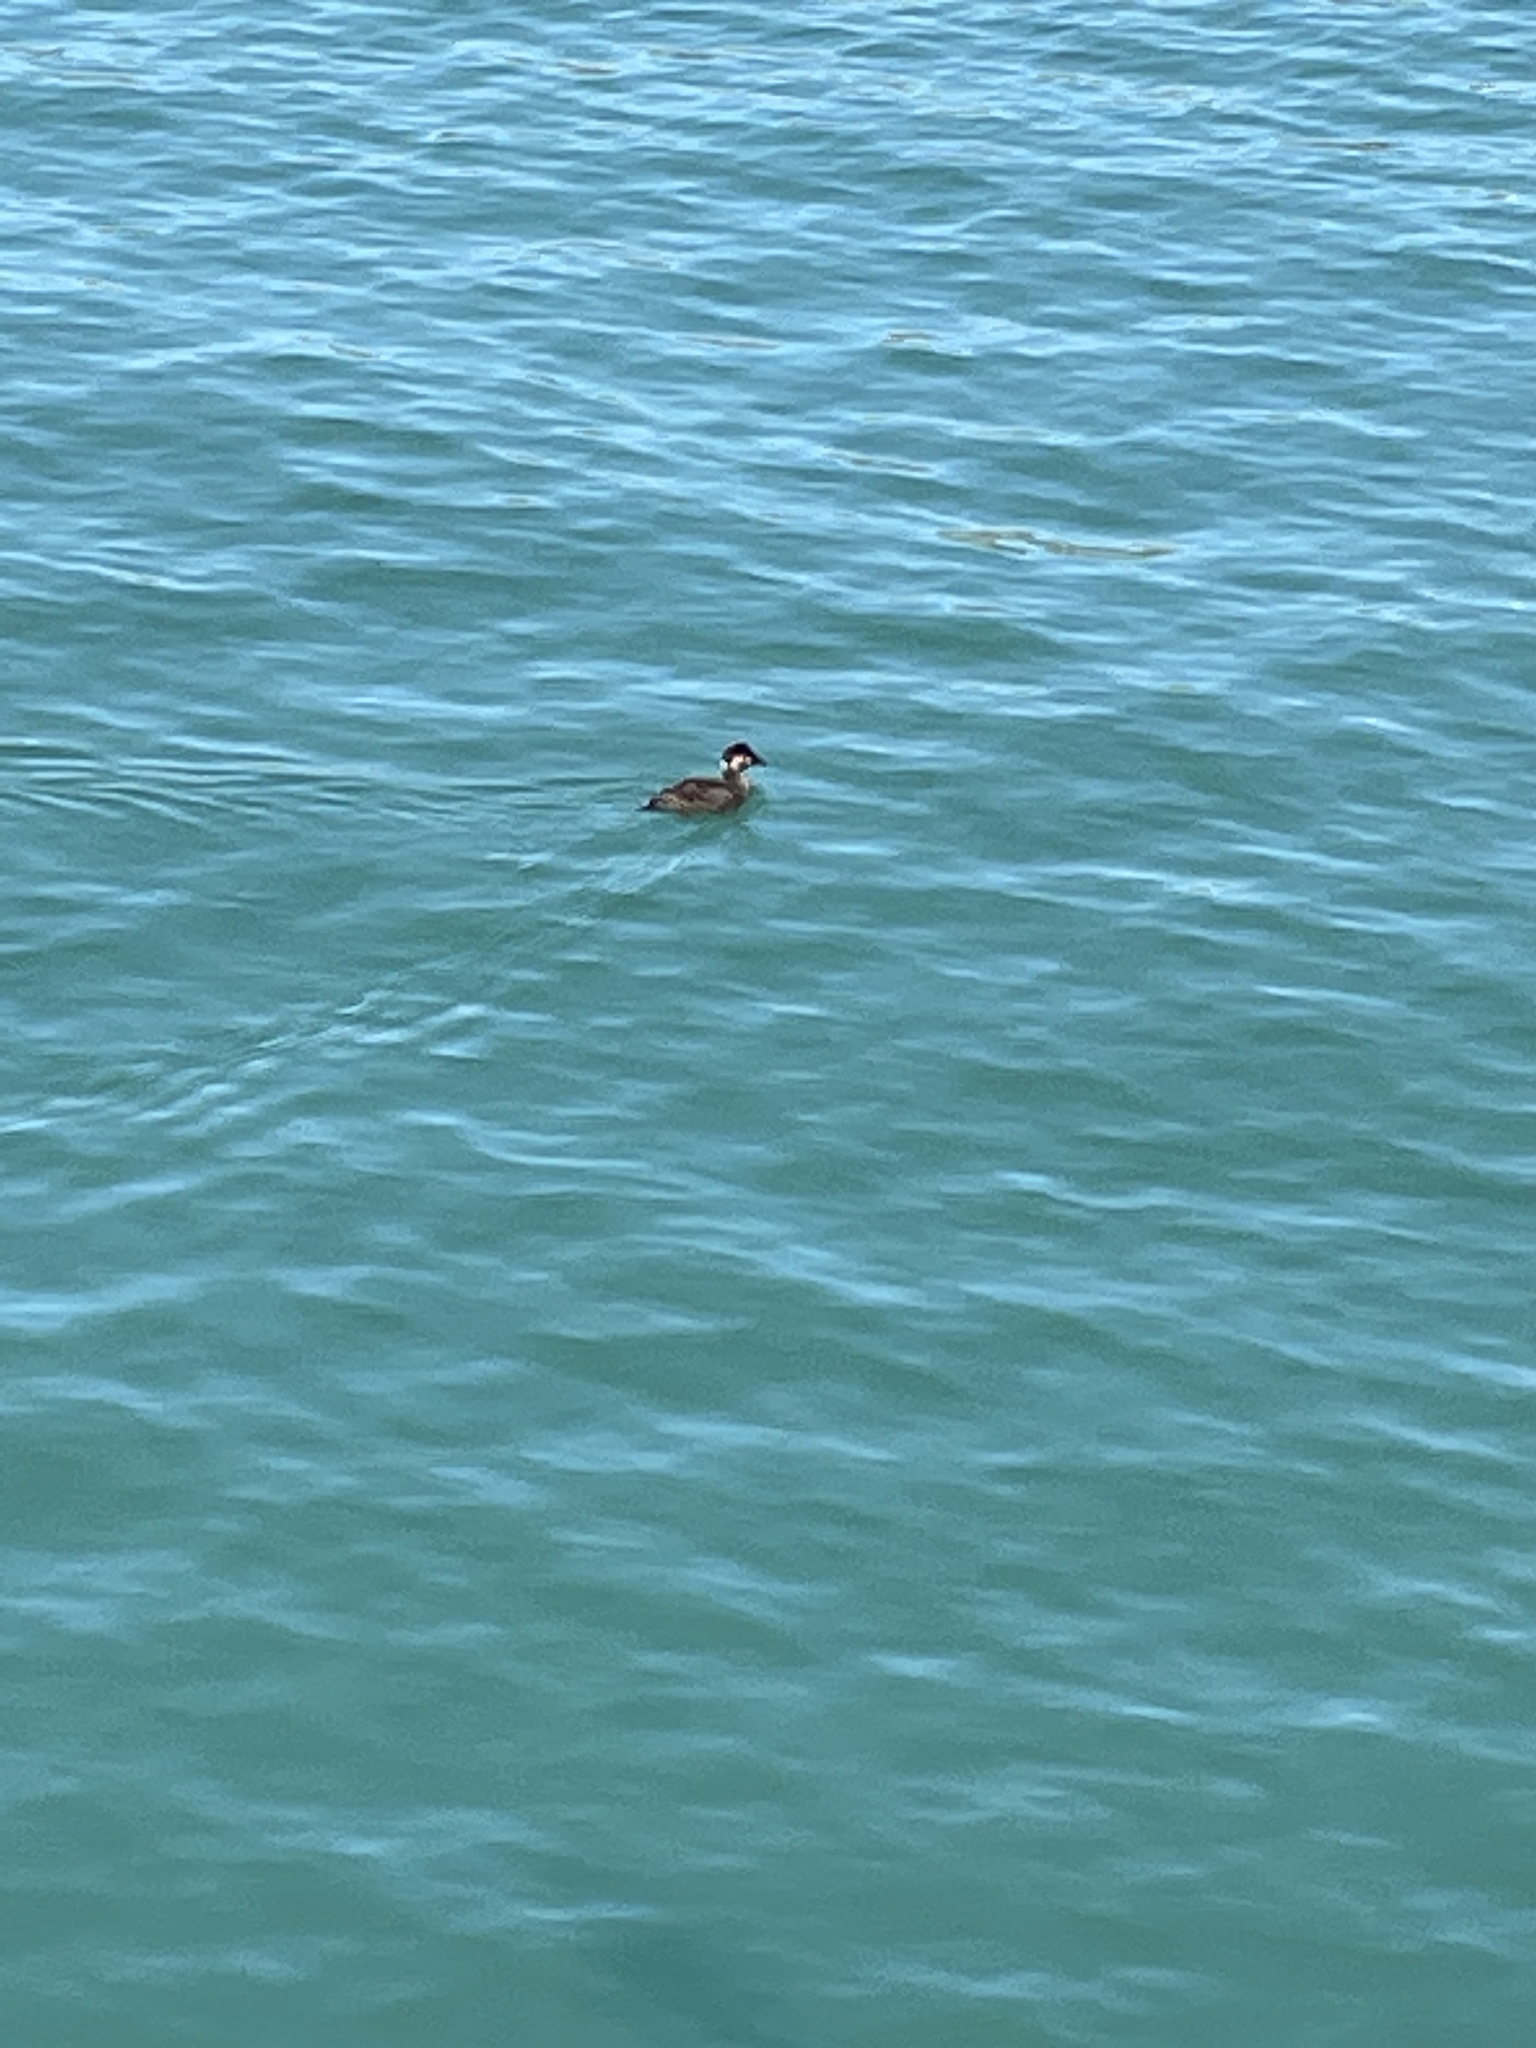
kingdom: Animalia
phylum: Chordata
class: Aves
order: Anseriformes
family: Anatidae
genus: Melanitta
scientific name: Melanitta perspicillata
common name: Surf scoter
